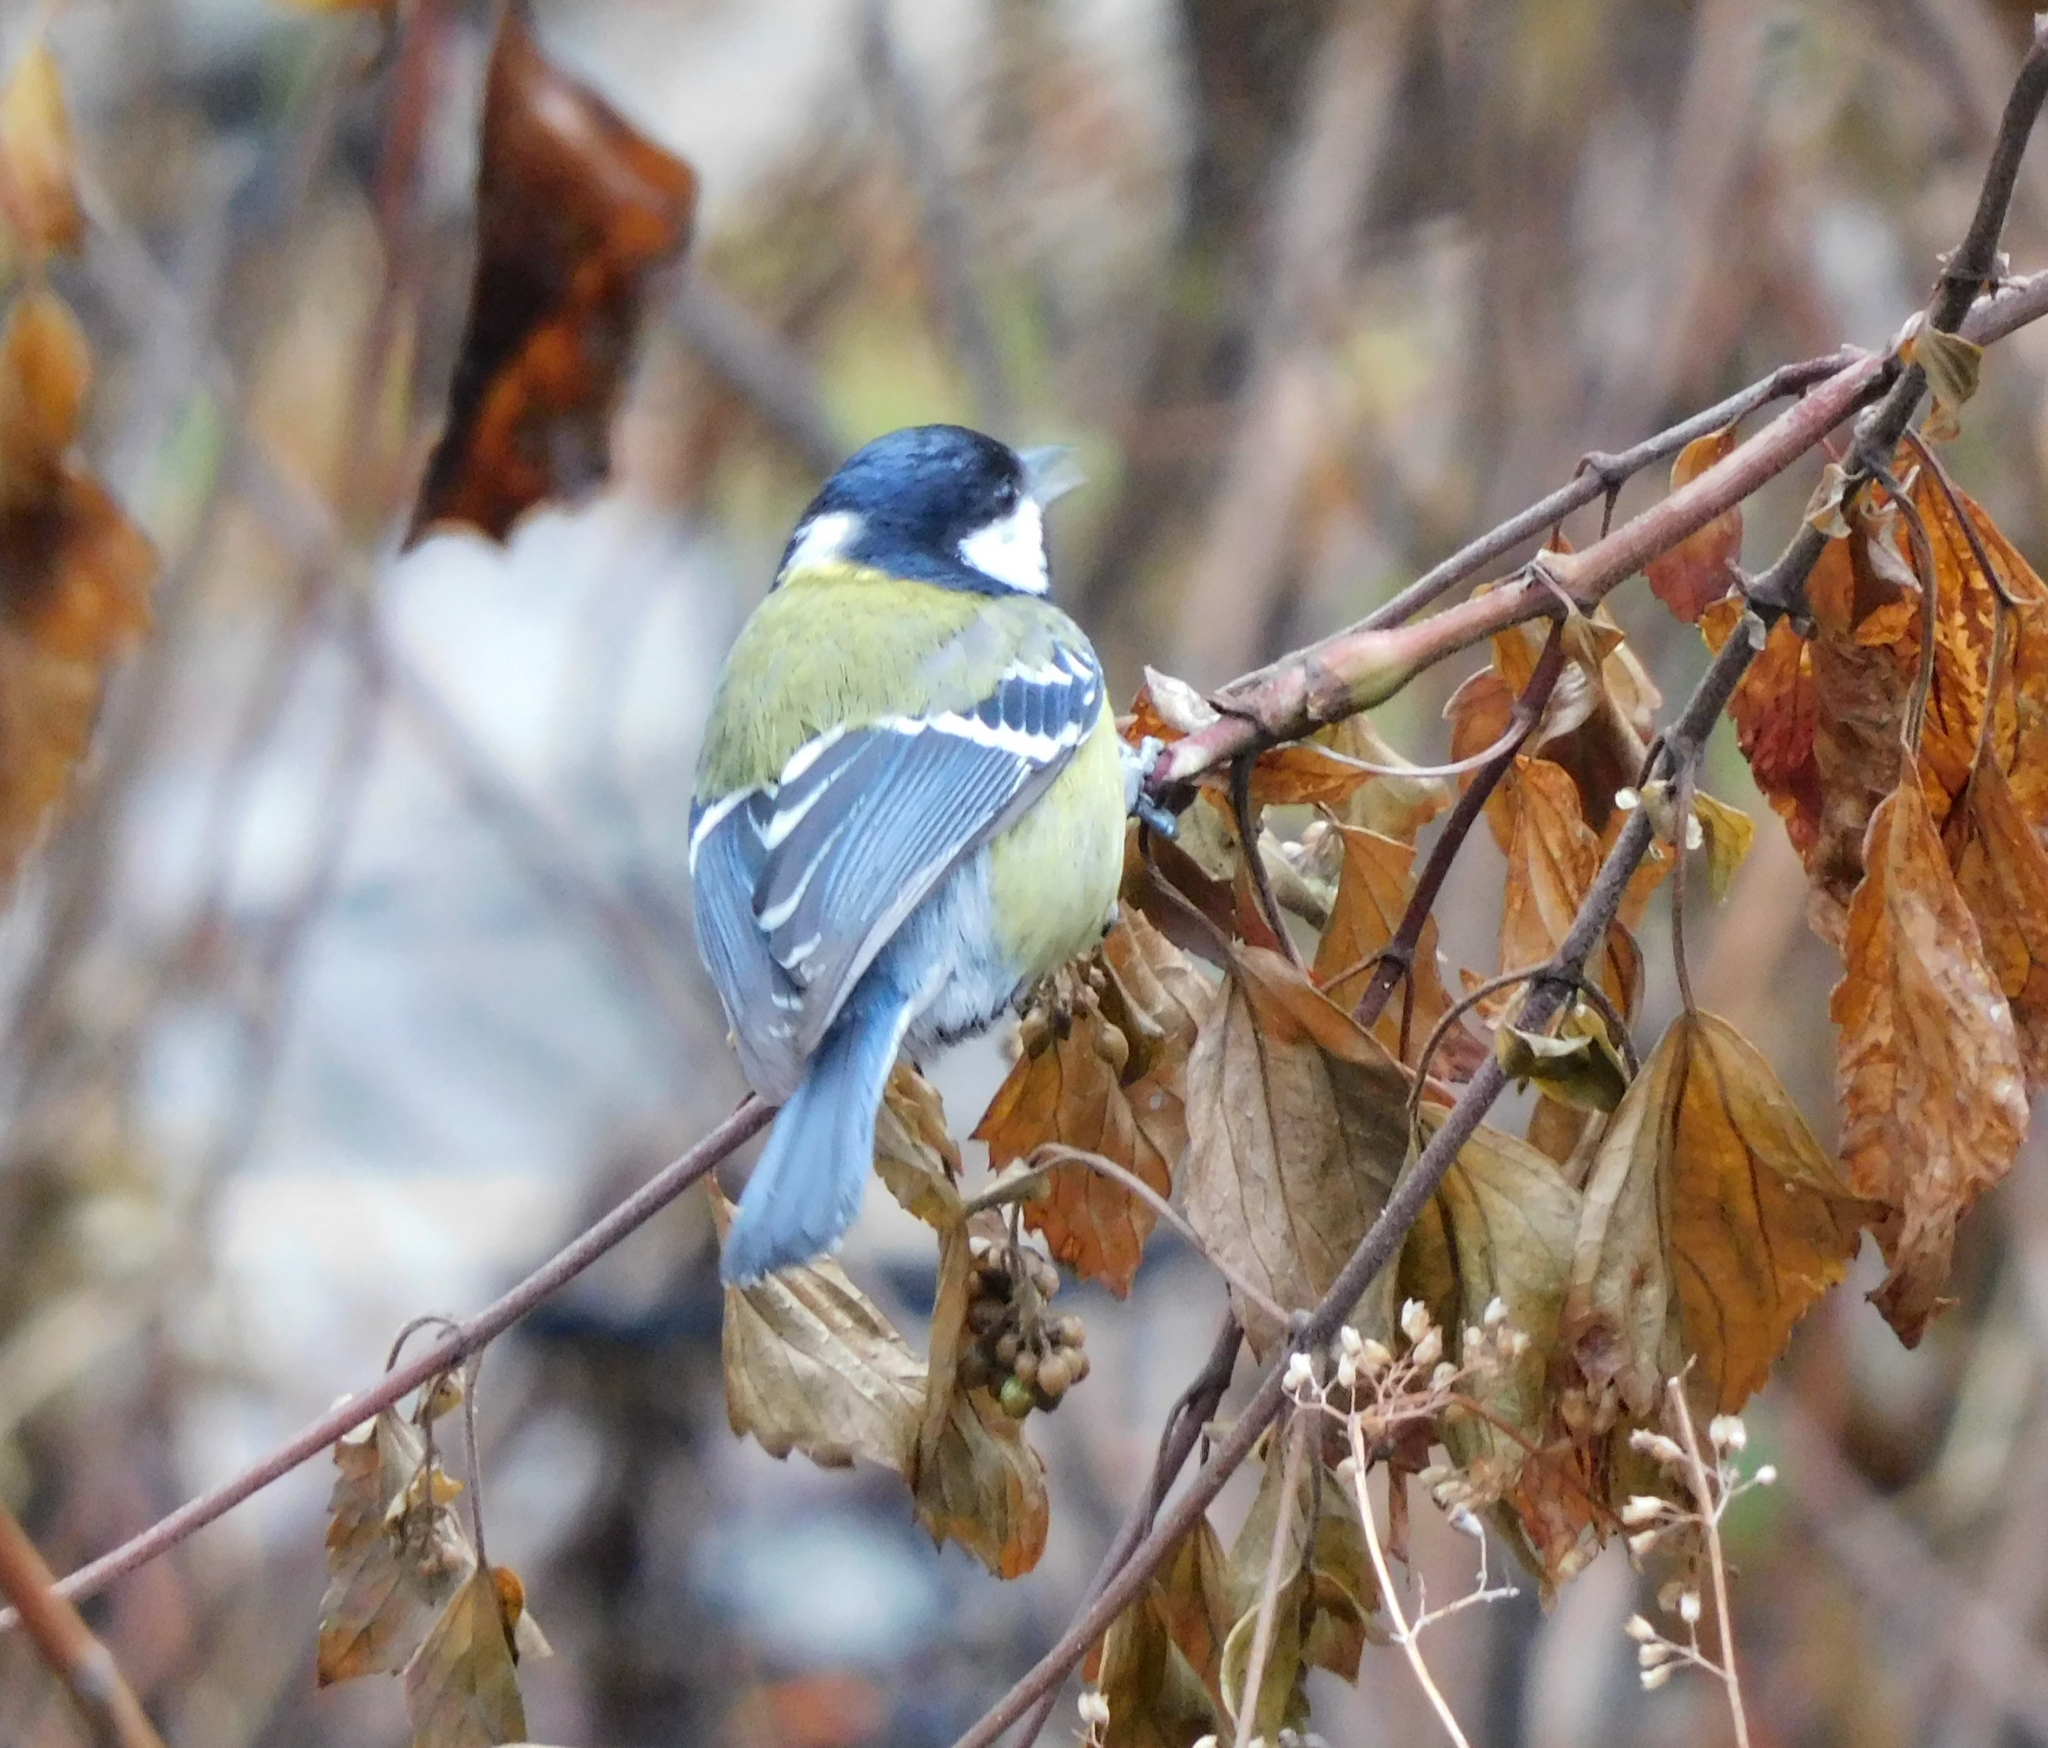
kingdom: Animalia
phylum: Chordata
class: Aves
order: Passeriformes
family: Paridae
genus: Parus
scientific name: Parus monticolus
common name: Green-backed tit
